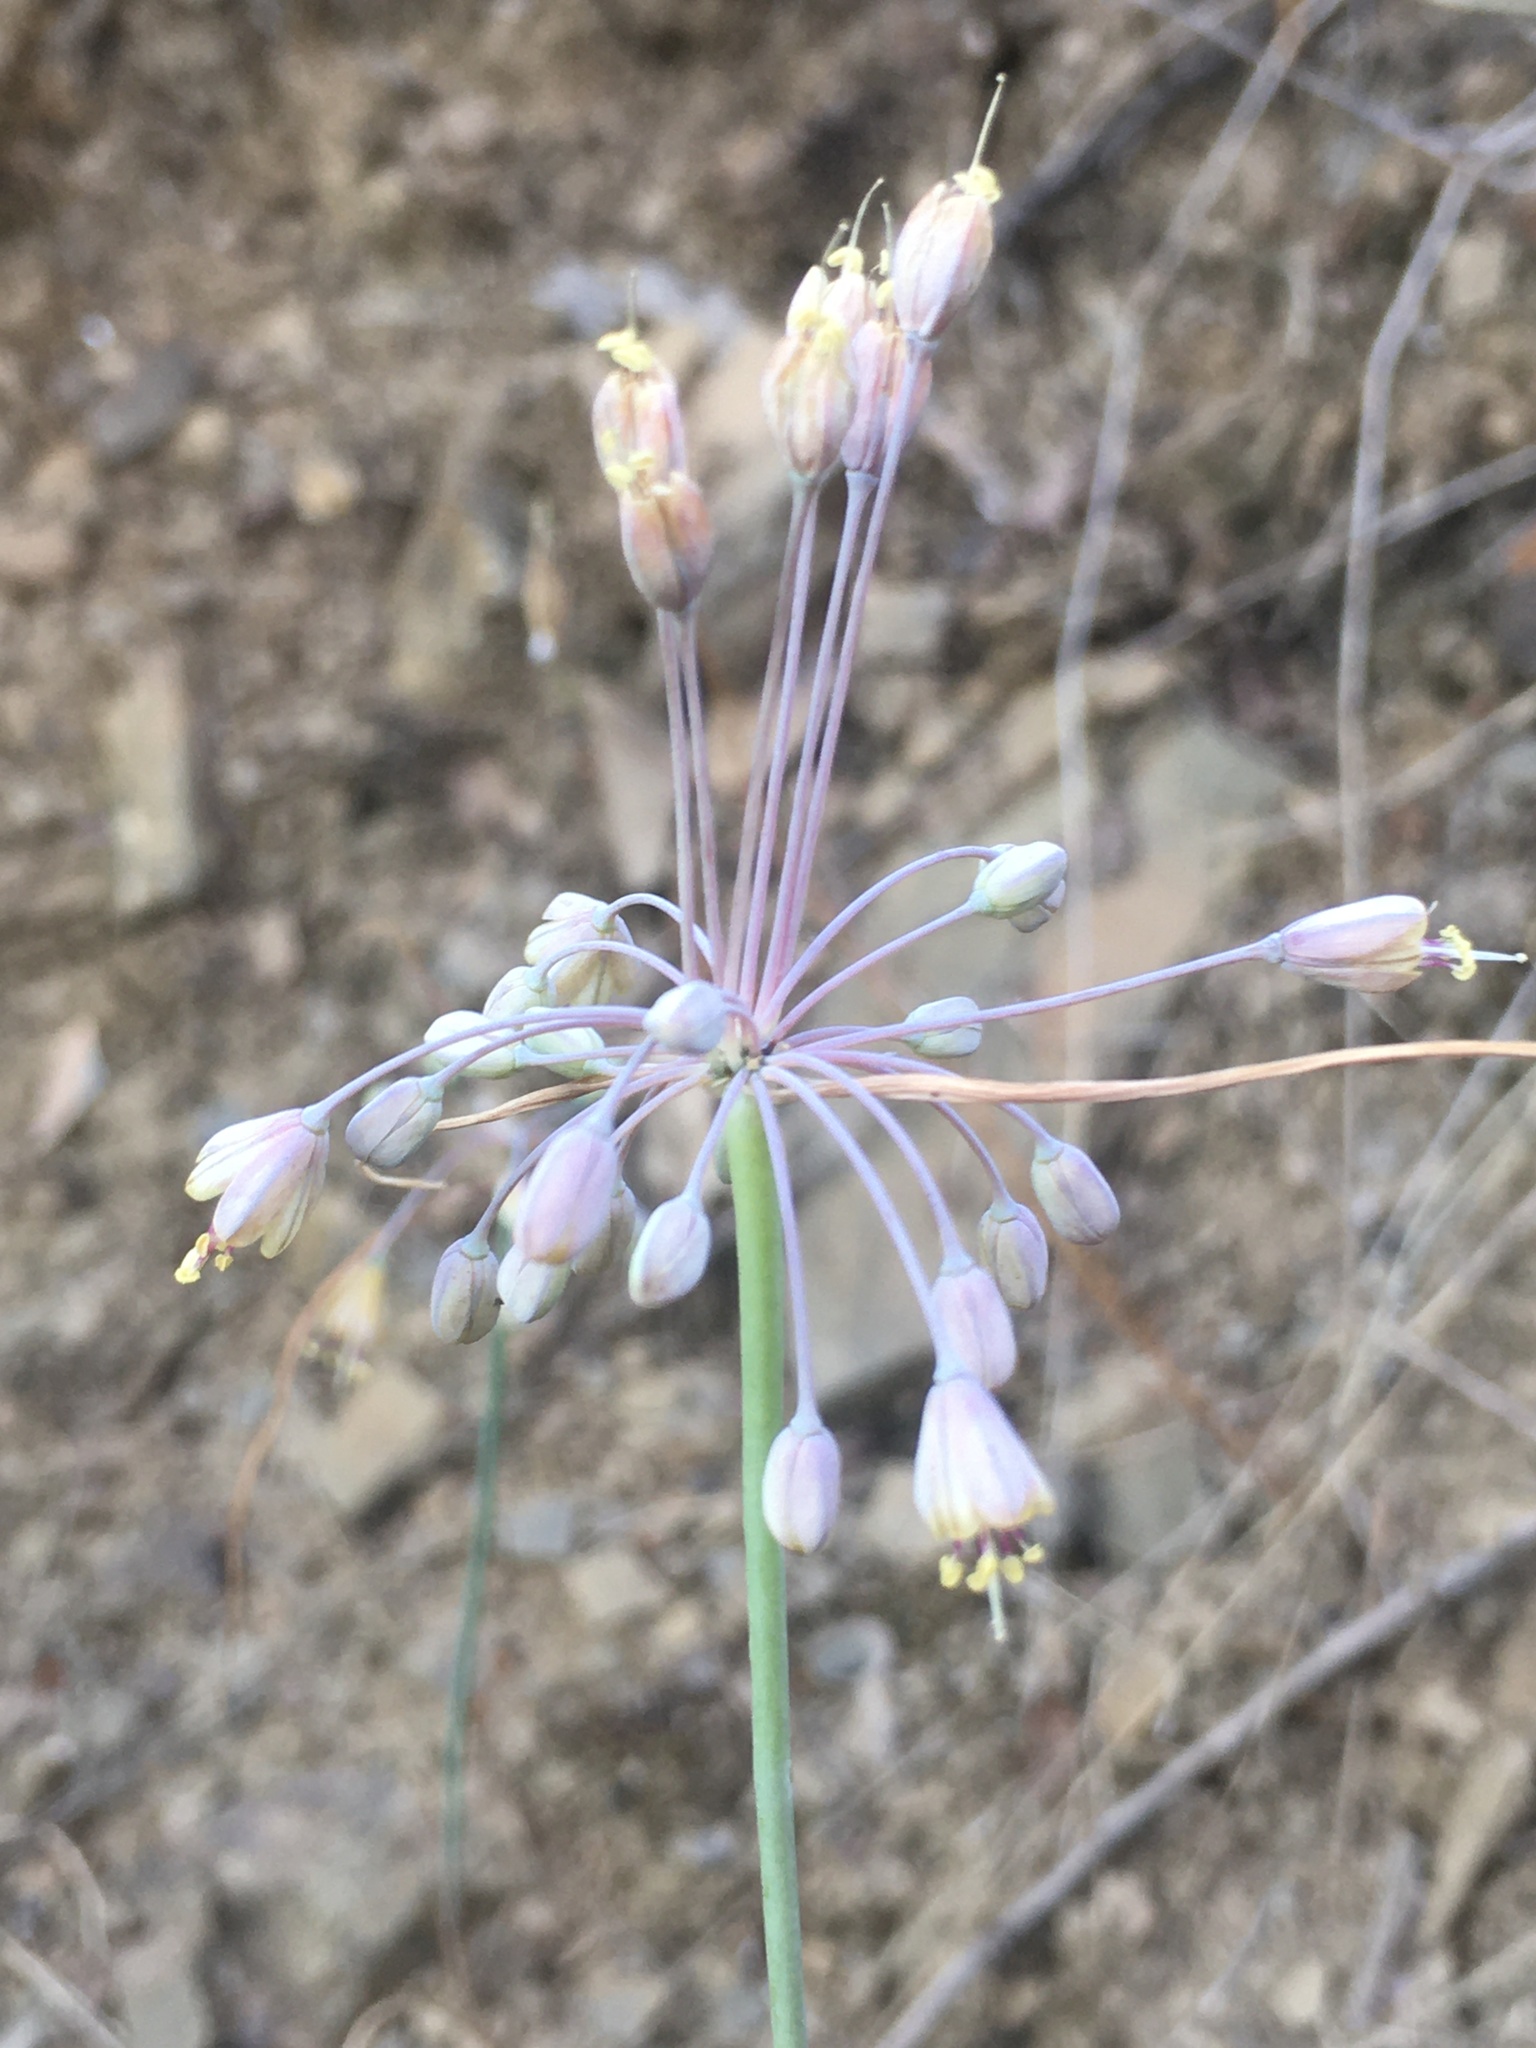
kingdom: Plantae
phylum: Tracheophyta
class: Liliopsida
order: Asparagales
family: Amaryllidaceae
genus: Allium
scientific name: Allium flavum
